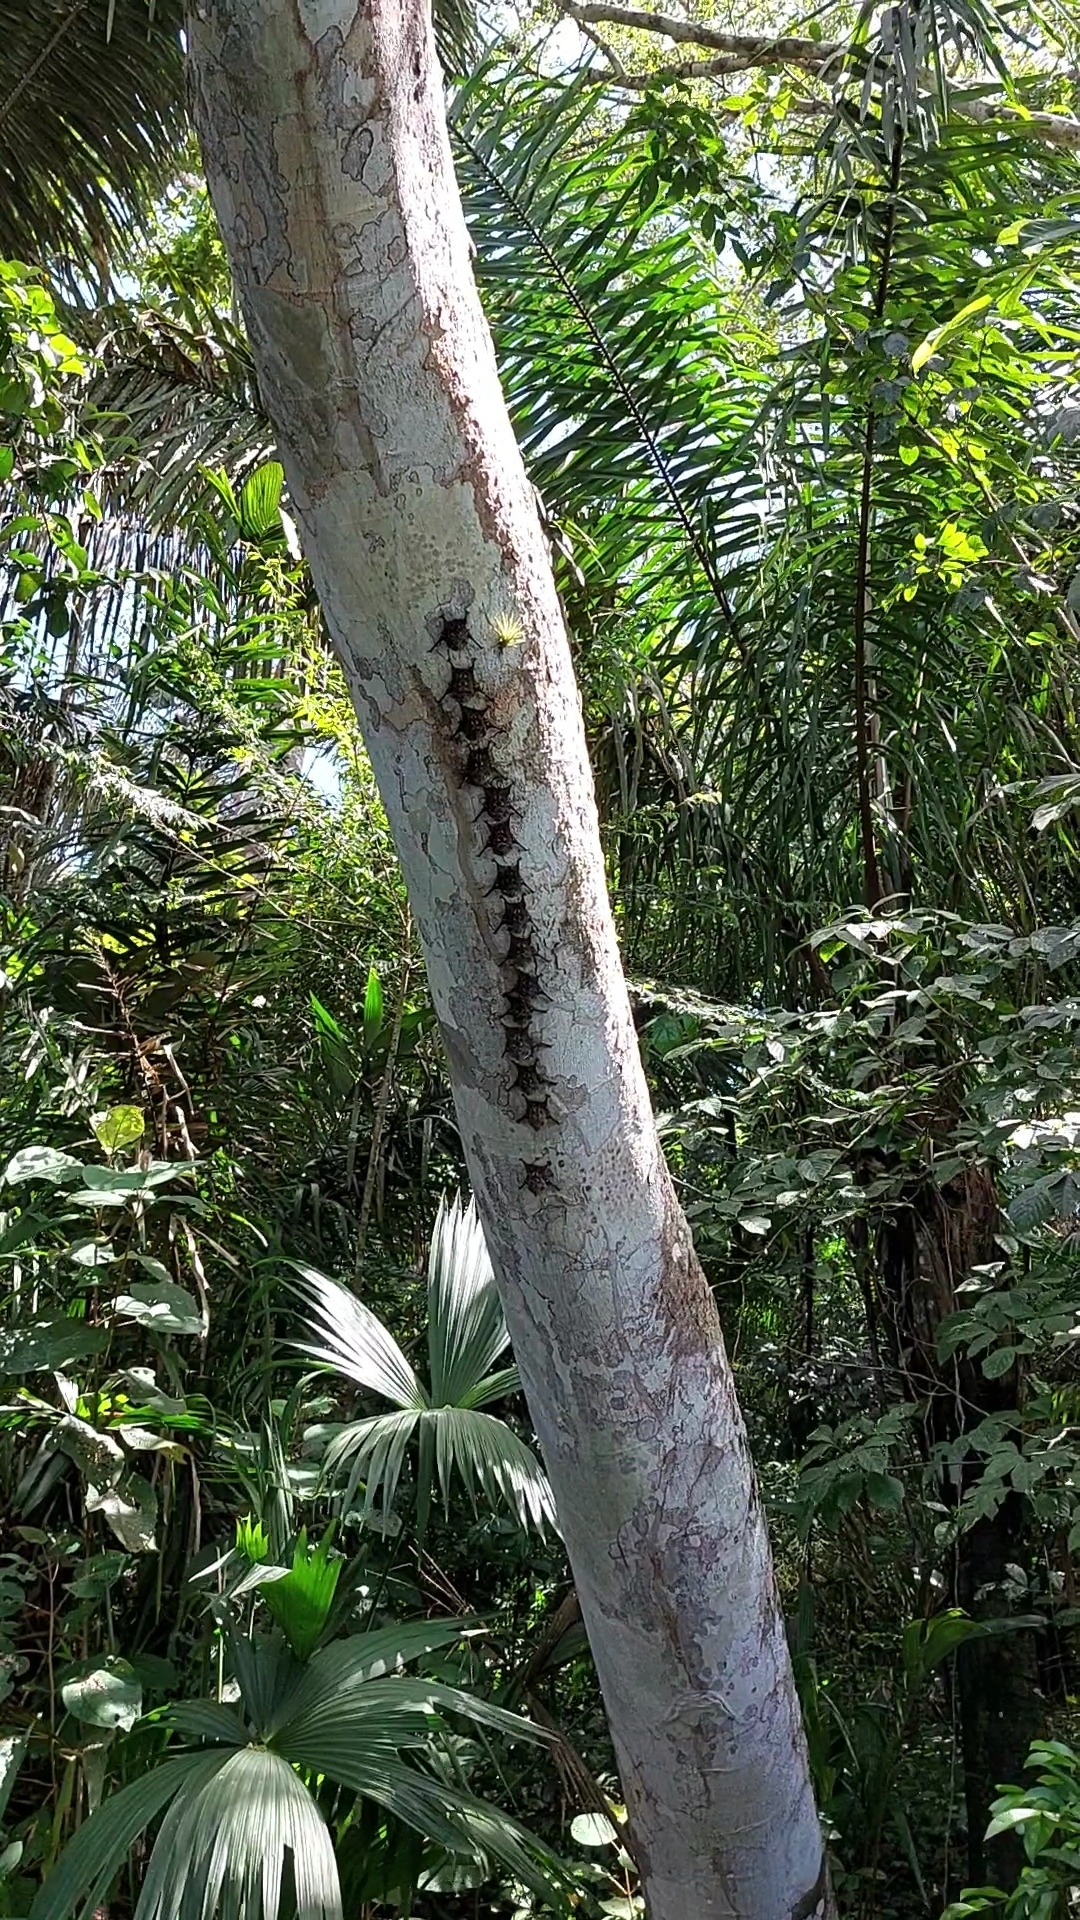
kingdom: Animalia
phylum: Chordata
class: Mammalia
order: Chiroptera
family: Emballonuridae
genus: Rhynchonycteris
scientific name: Rhynchonycteris naso
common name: Proboscis bat
